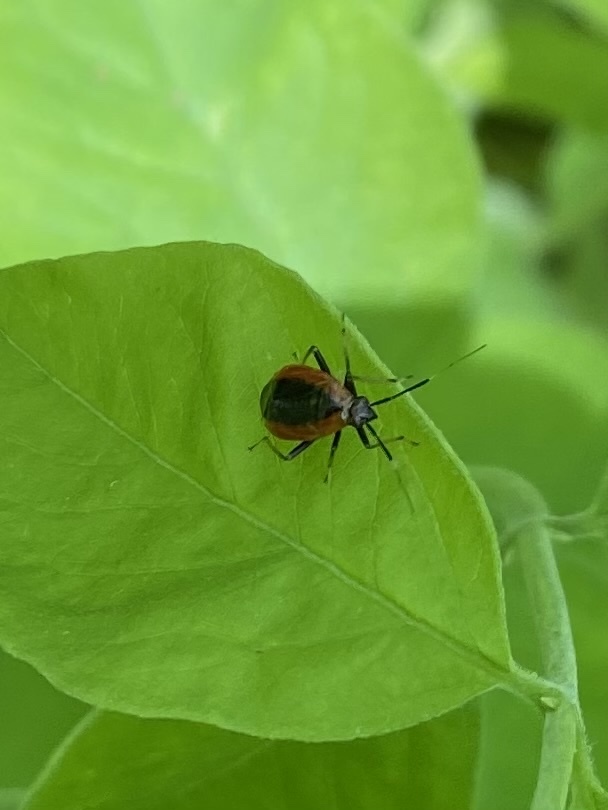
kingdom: Animalia
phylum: Arthropoda
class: Insecta
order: Hemiptera
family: Miridae
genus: Metriorrhynchomiris
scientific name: Metriorrhynchomiris dislocatus
